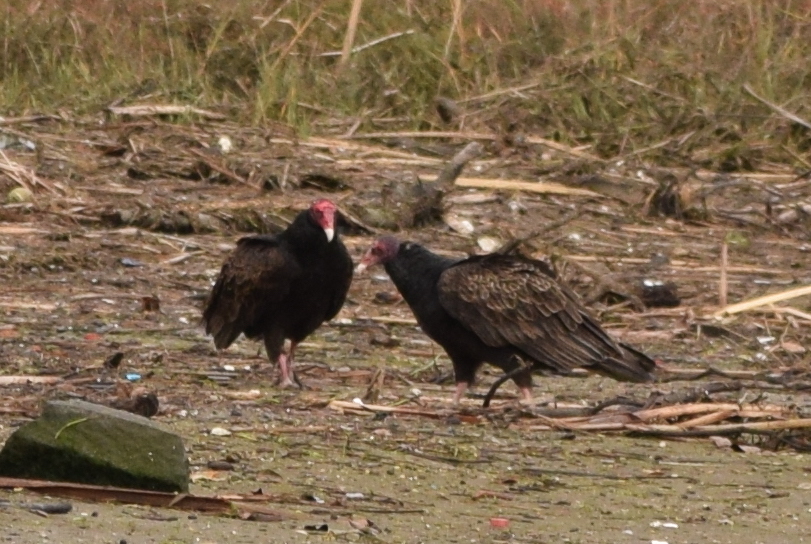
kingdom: Animalia
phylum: Chordata
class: Aves
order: Accipitriformes
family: Cathartidae
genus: Cathartes
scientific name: Cathartes aura
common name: Turkey vulture
